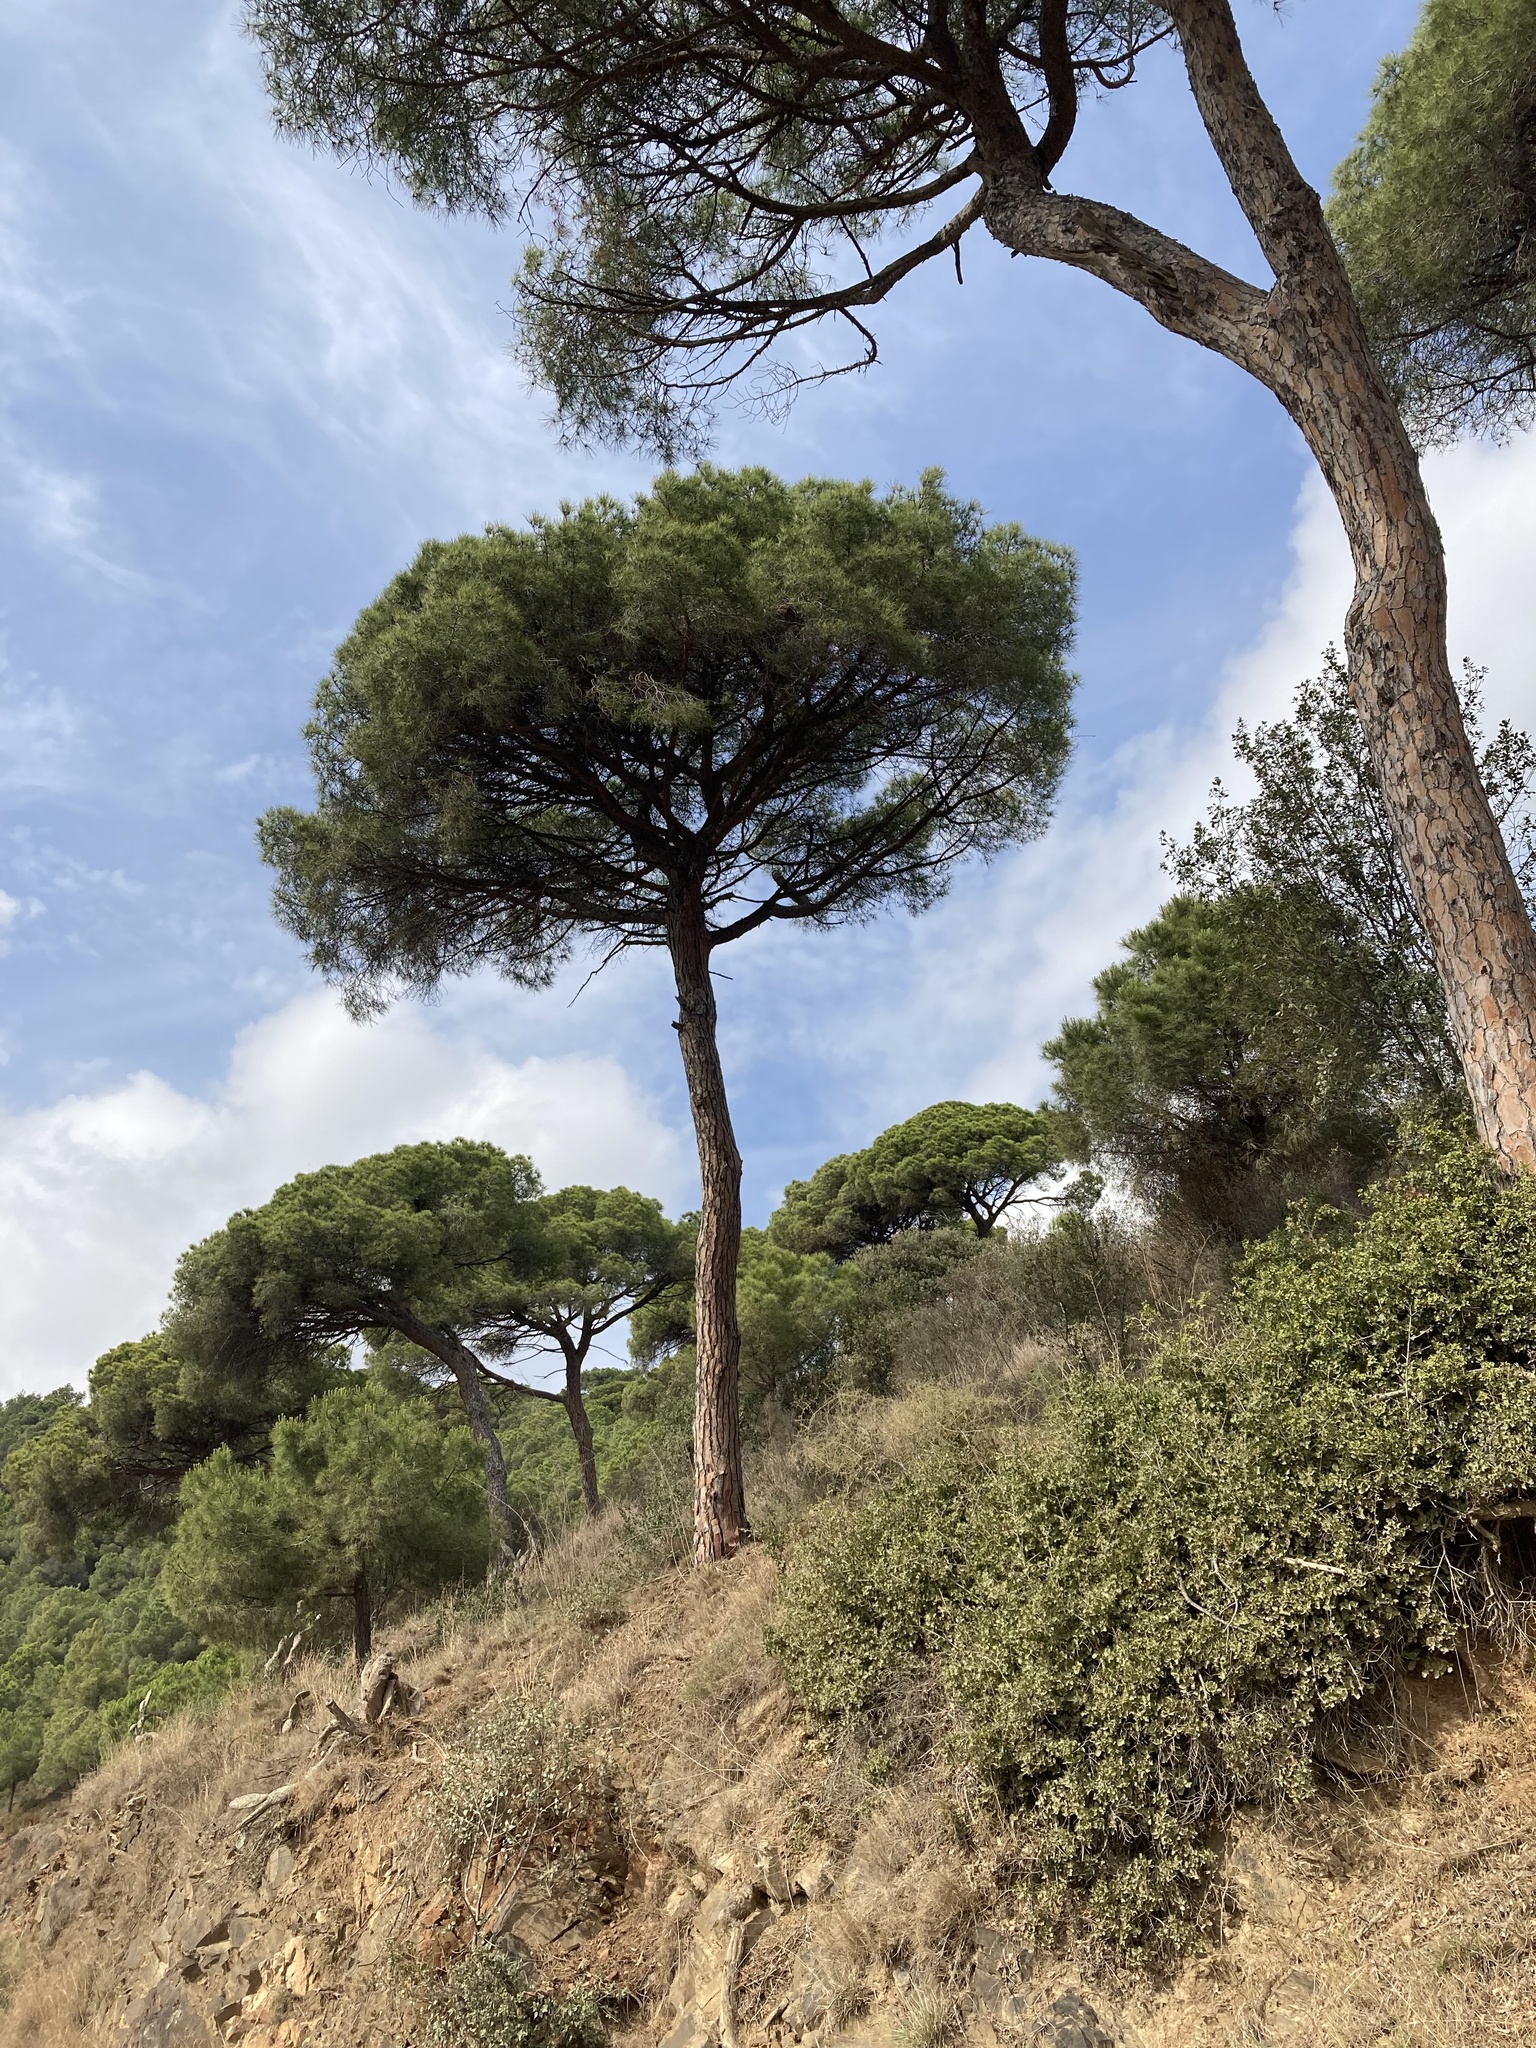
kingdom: Plantae
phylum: Tracheophyta
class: Pinopsida
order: Pinales
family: Pinaceae
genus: Pinus
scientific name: Pinus pinea
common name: Italian stone pine
